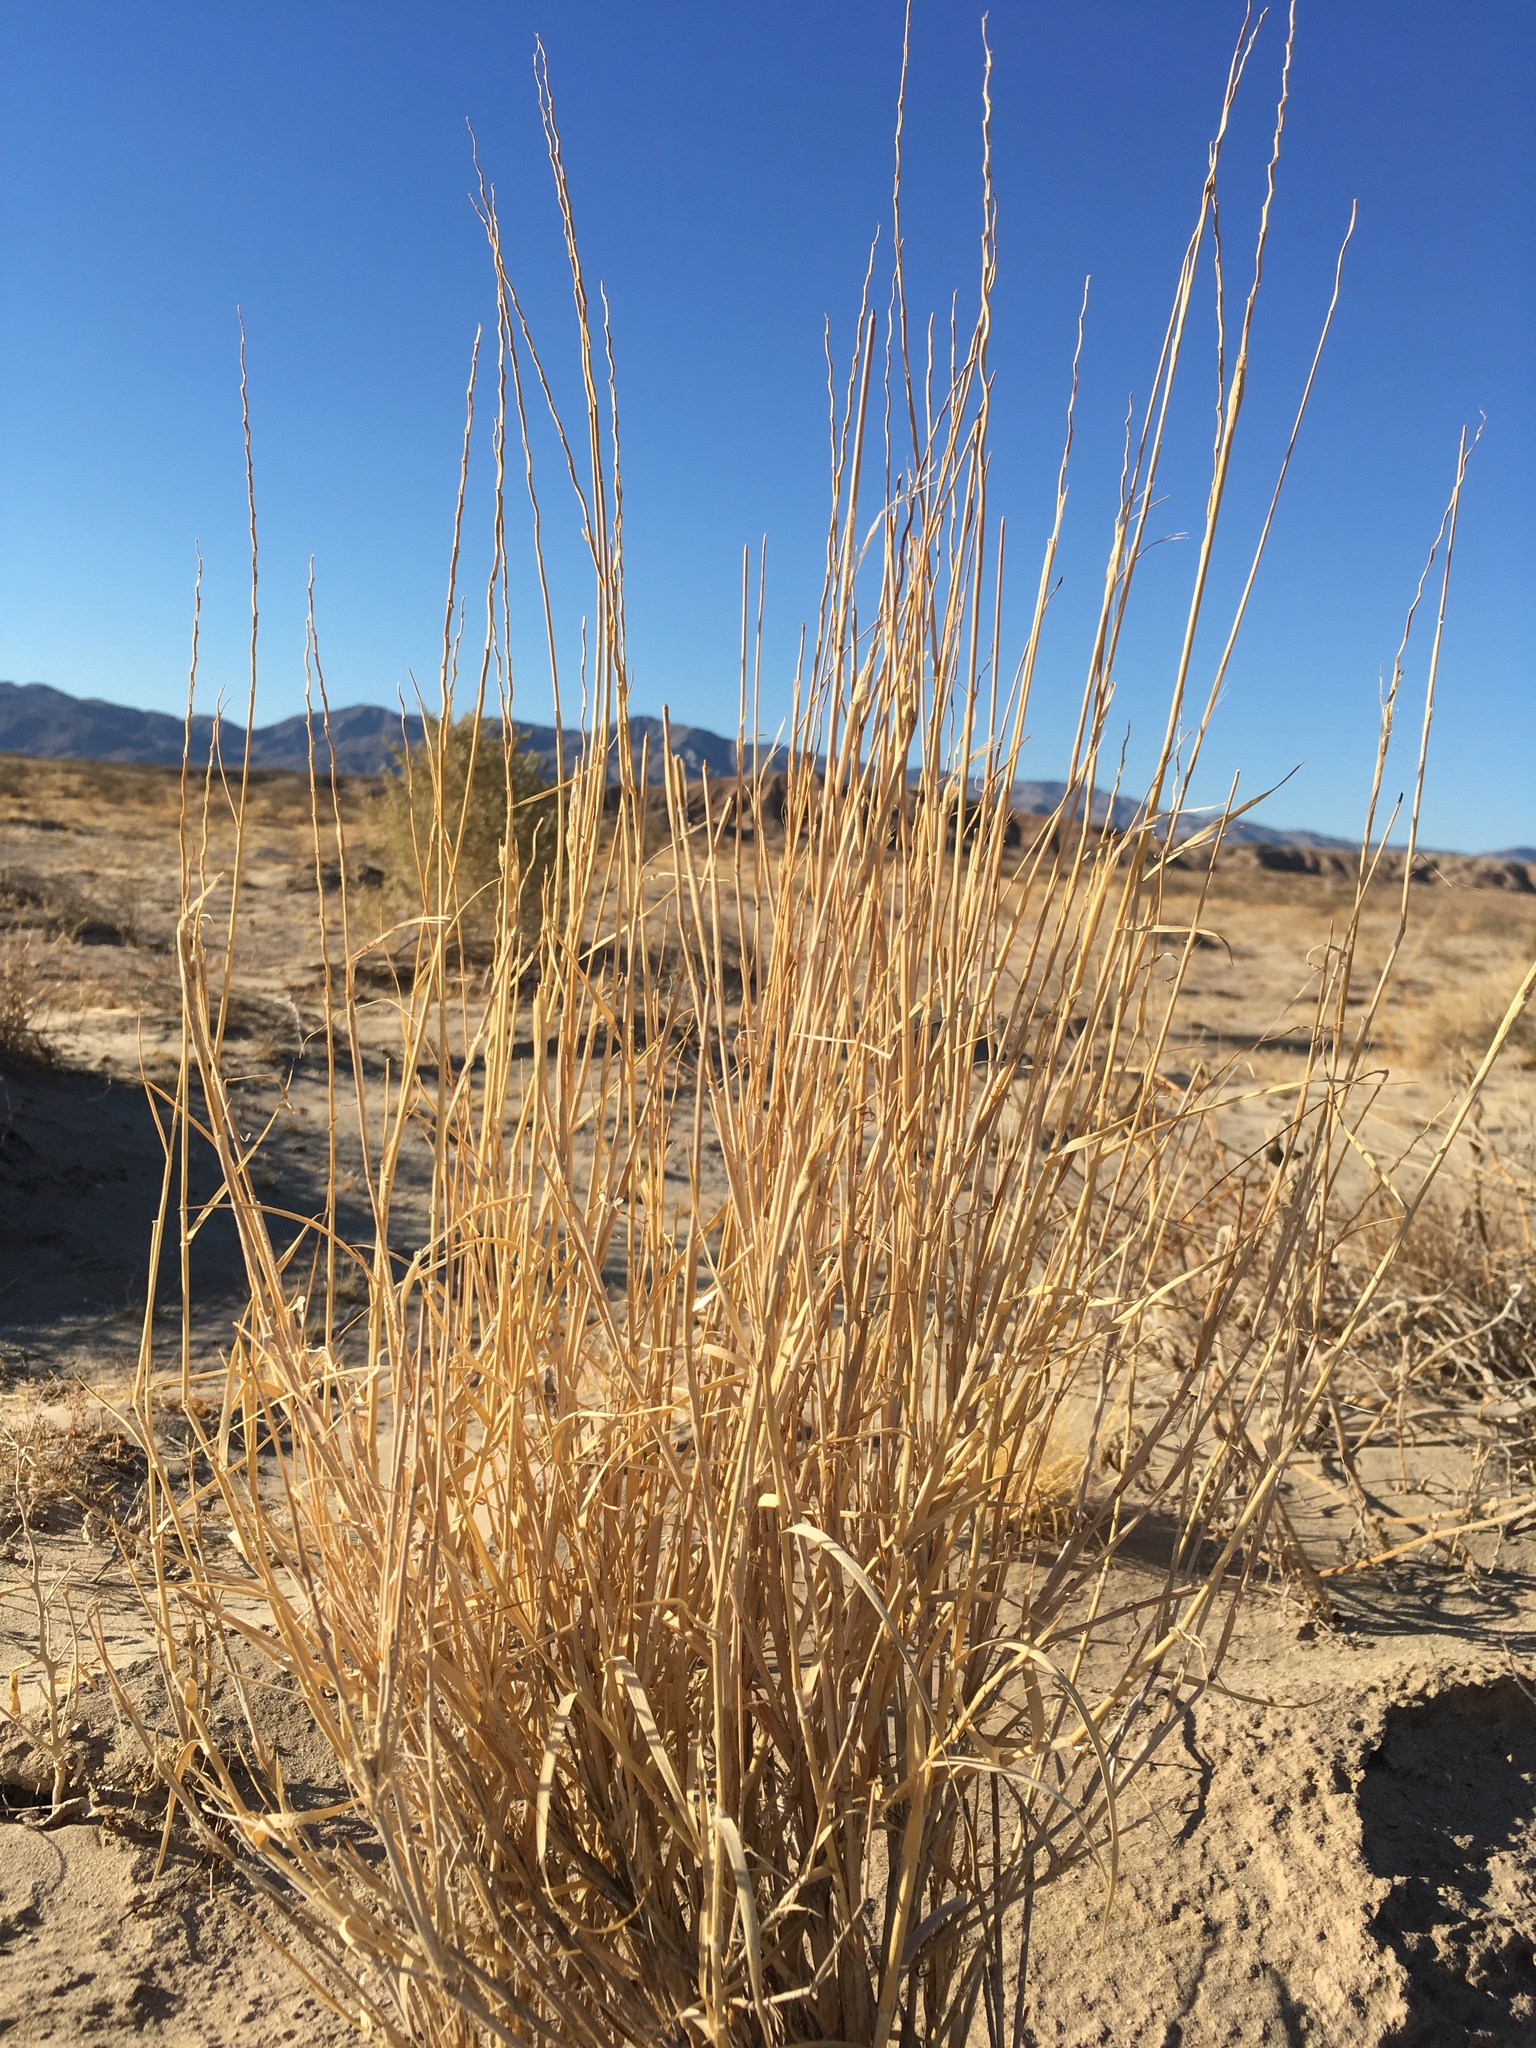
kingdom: Plantae
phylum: Tracheophyta
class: Liliopsida
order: Poales
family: Poaceae
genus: Hilaria
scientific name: Hilaria rigida
